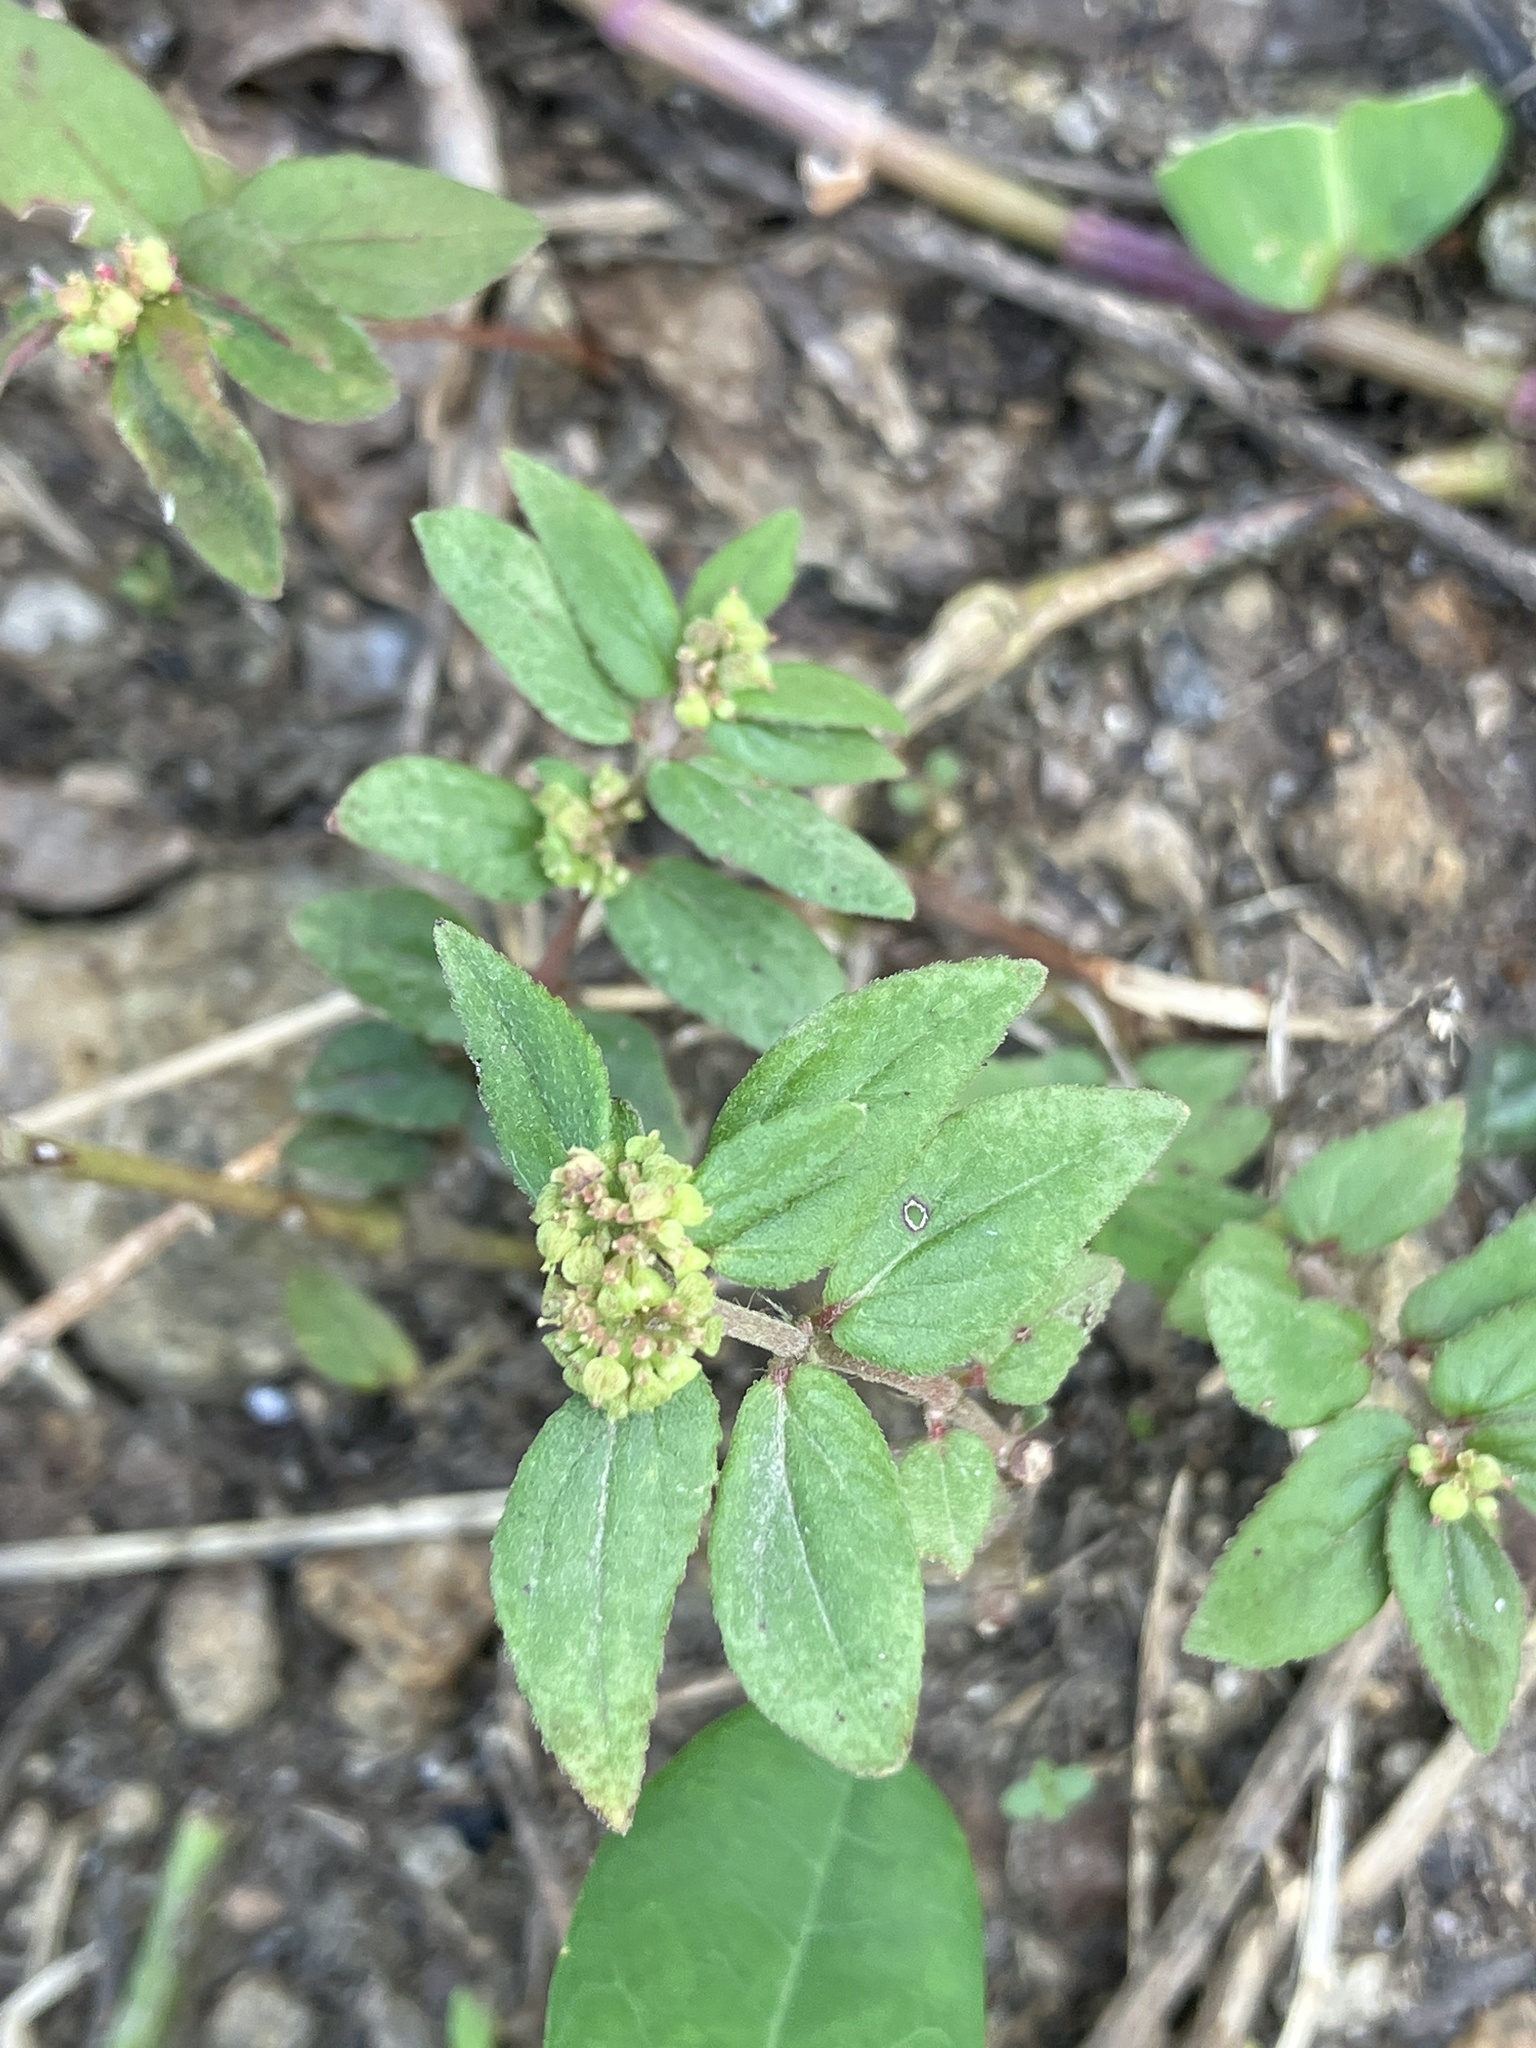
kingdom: Plantae
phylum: Tracheophyta
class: Magnoliopsida
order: Malpighiales
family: Euphorbiaceae
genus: Euphorbia
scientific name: Euphorbia hirta
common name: Pillpod sandmat
